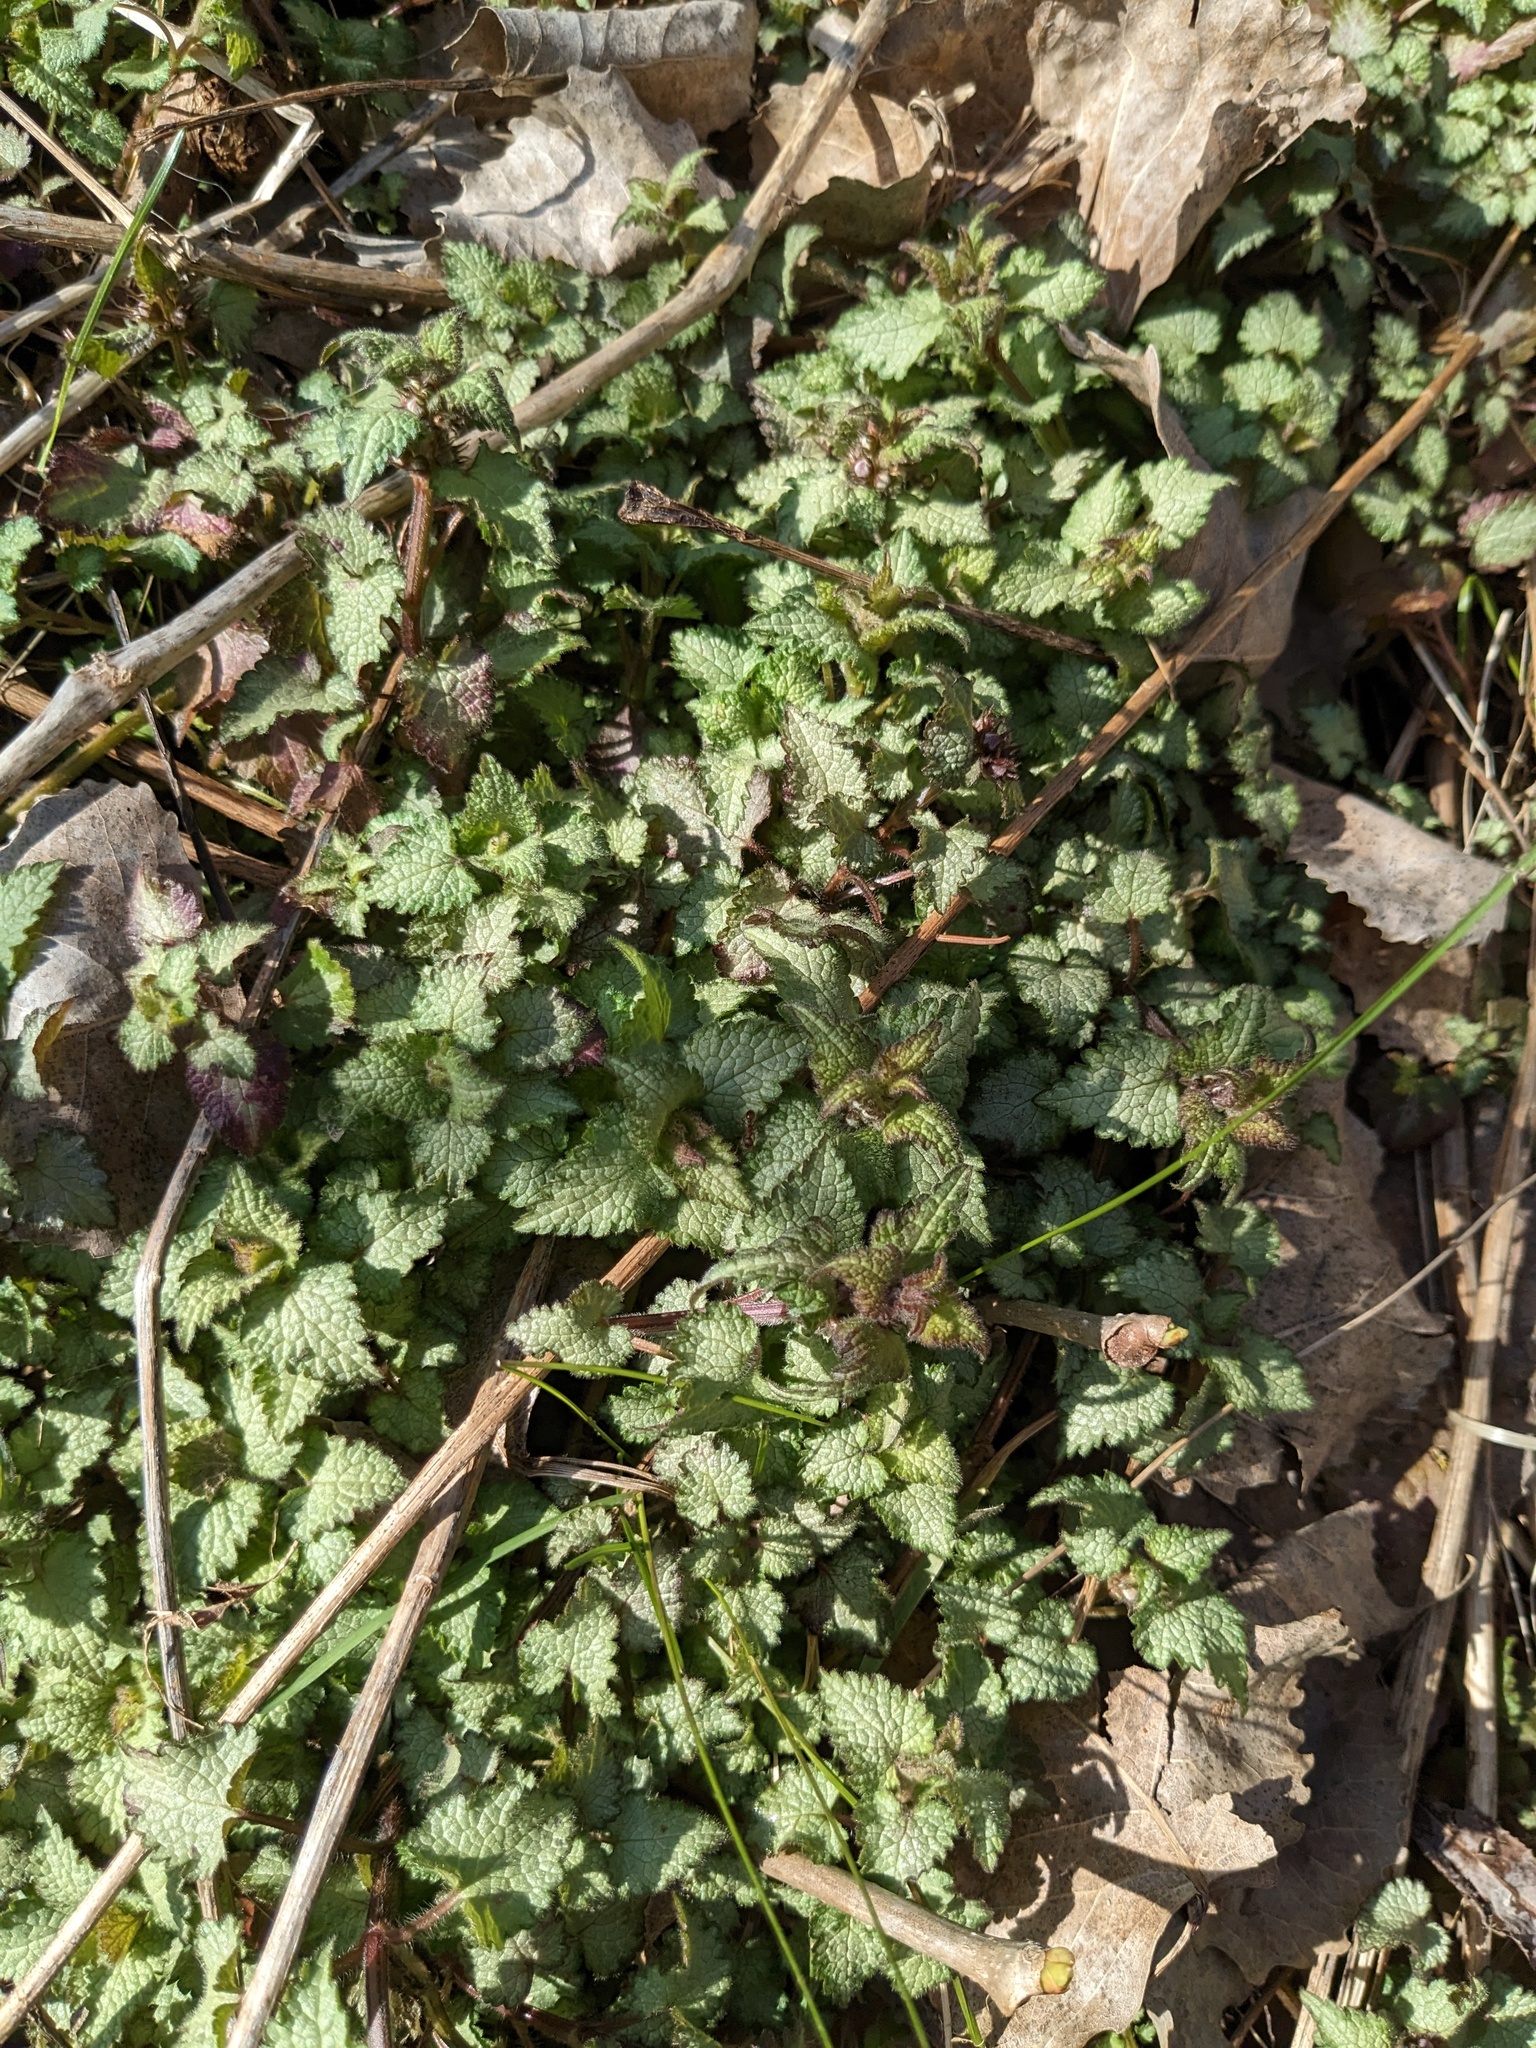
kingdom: Plantae
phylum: Tracheophyta
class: Magnoliopsida
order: Lamiales
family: Lamiaceae
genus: Lamium
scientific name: Lamium maculatum
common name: Spotted dead-nettle
